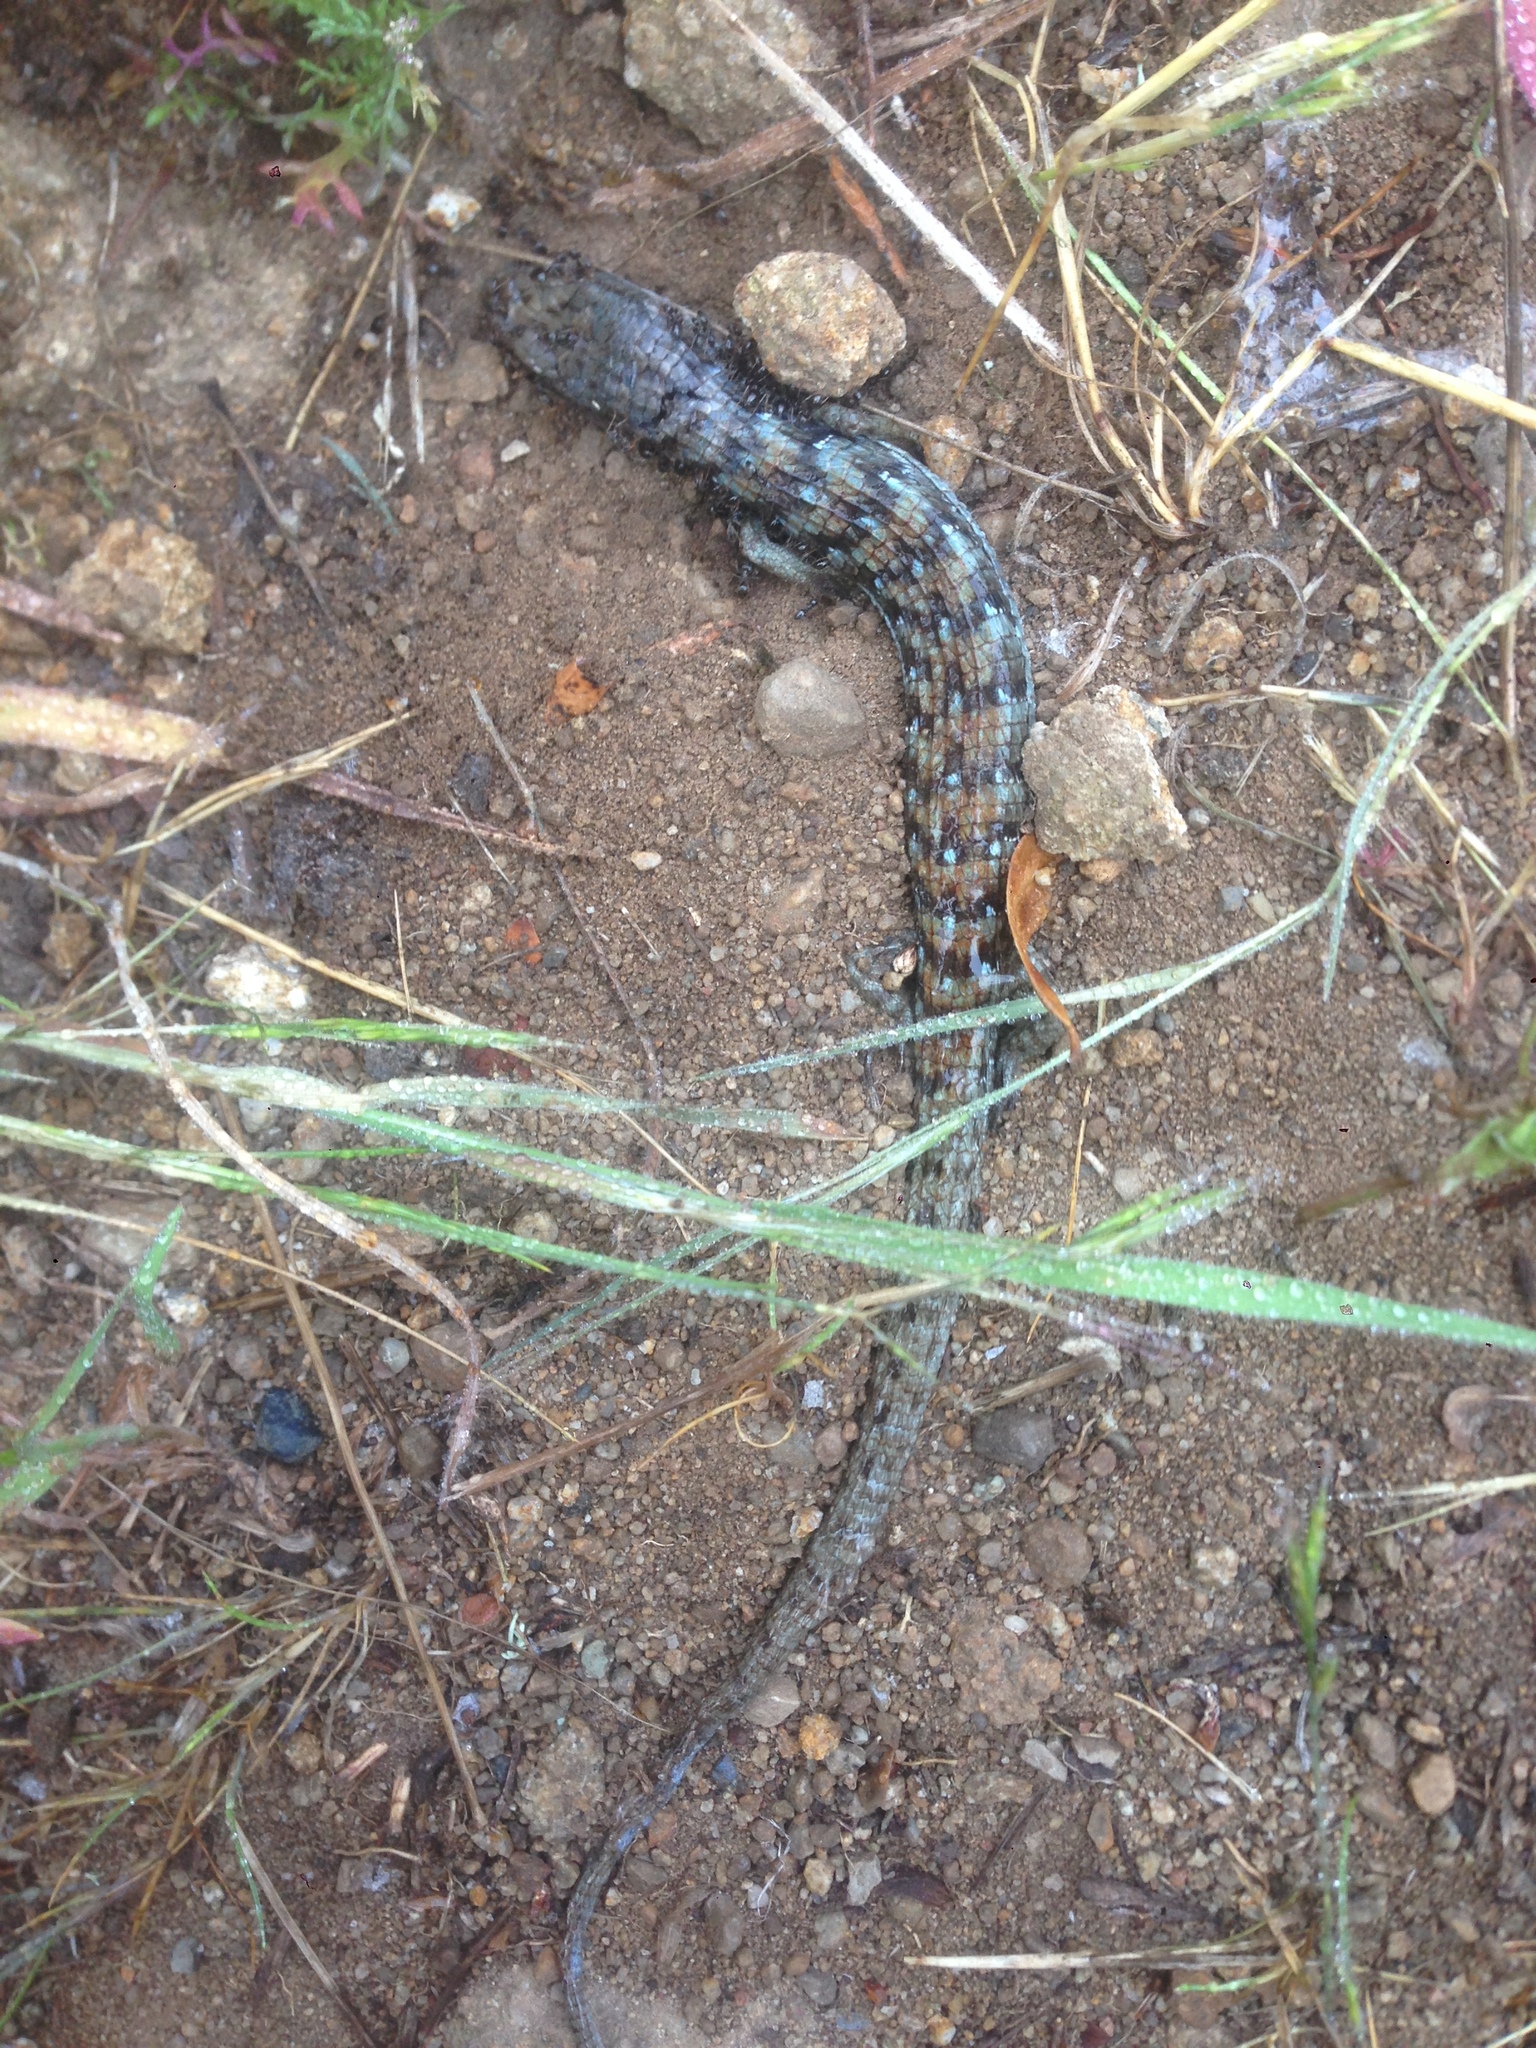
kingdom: Animalia
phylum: Chordata
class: Squamata
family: Anguidae
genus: Elgaria
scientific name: Elgaria multicarinata
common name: Southern alligator lizard
